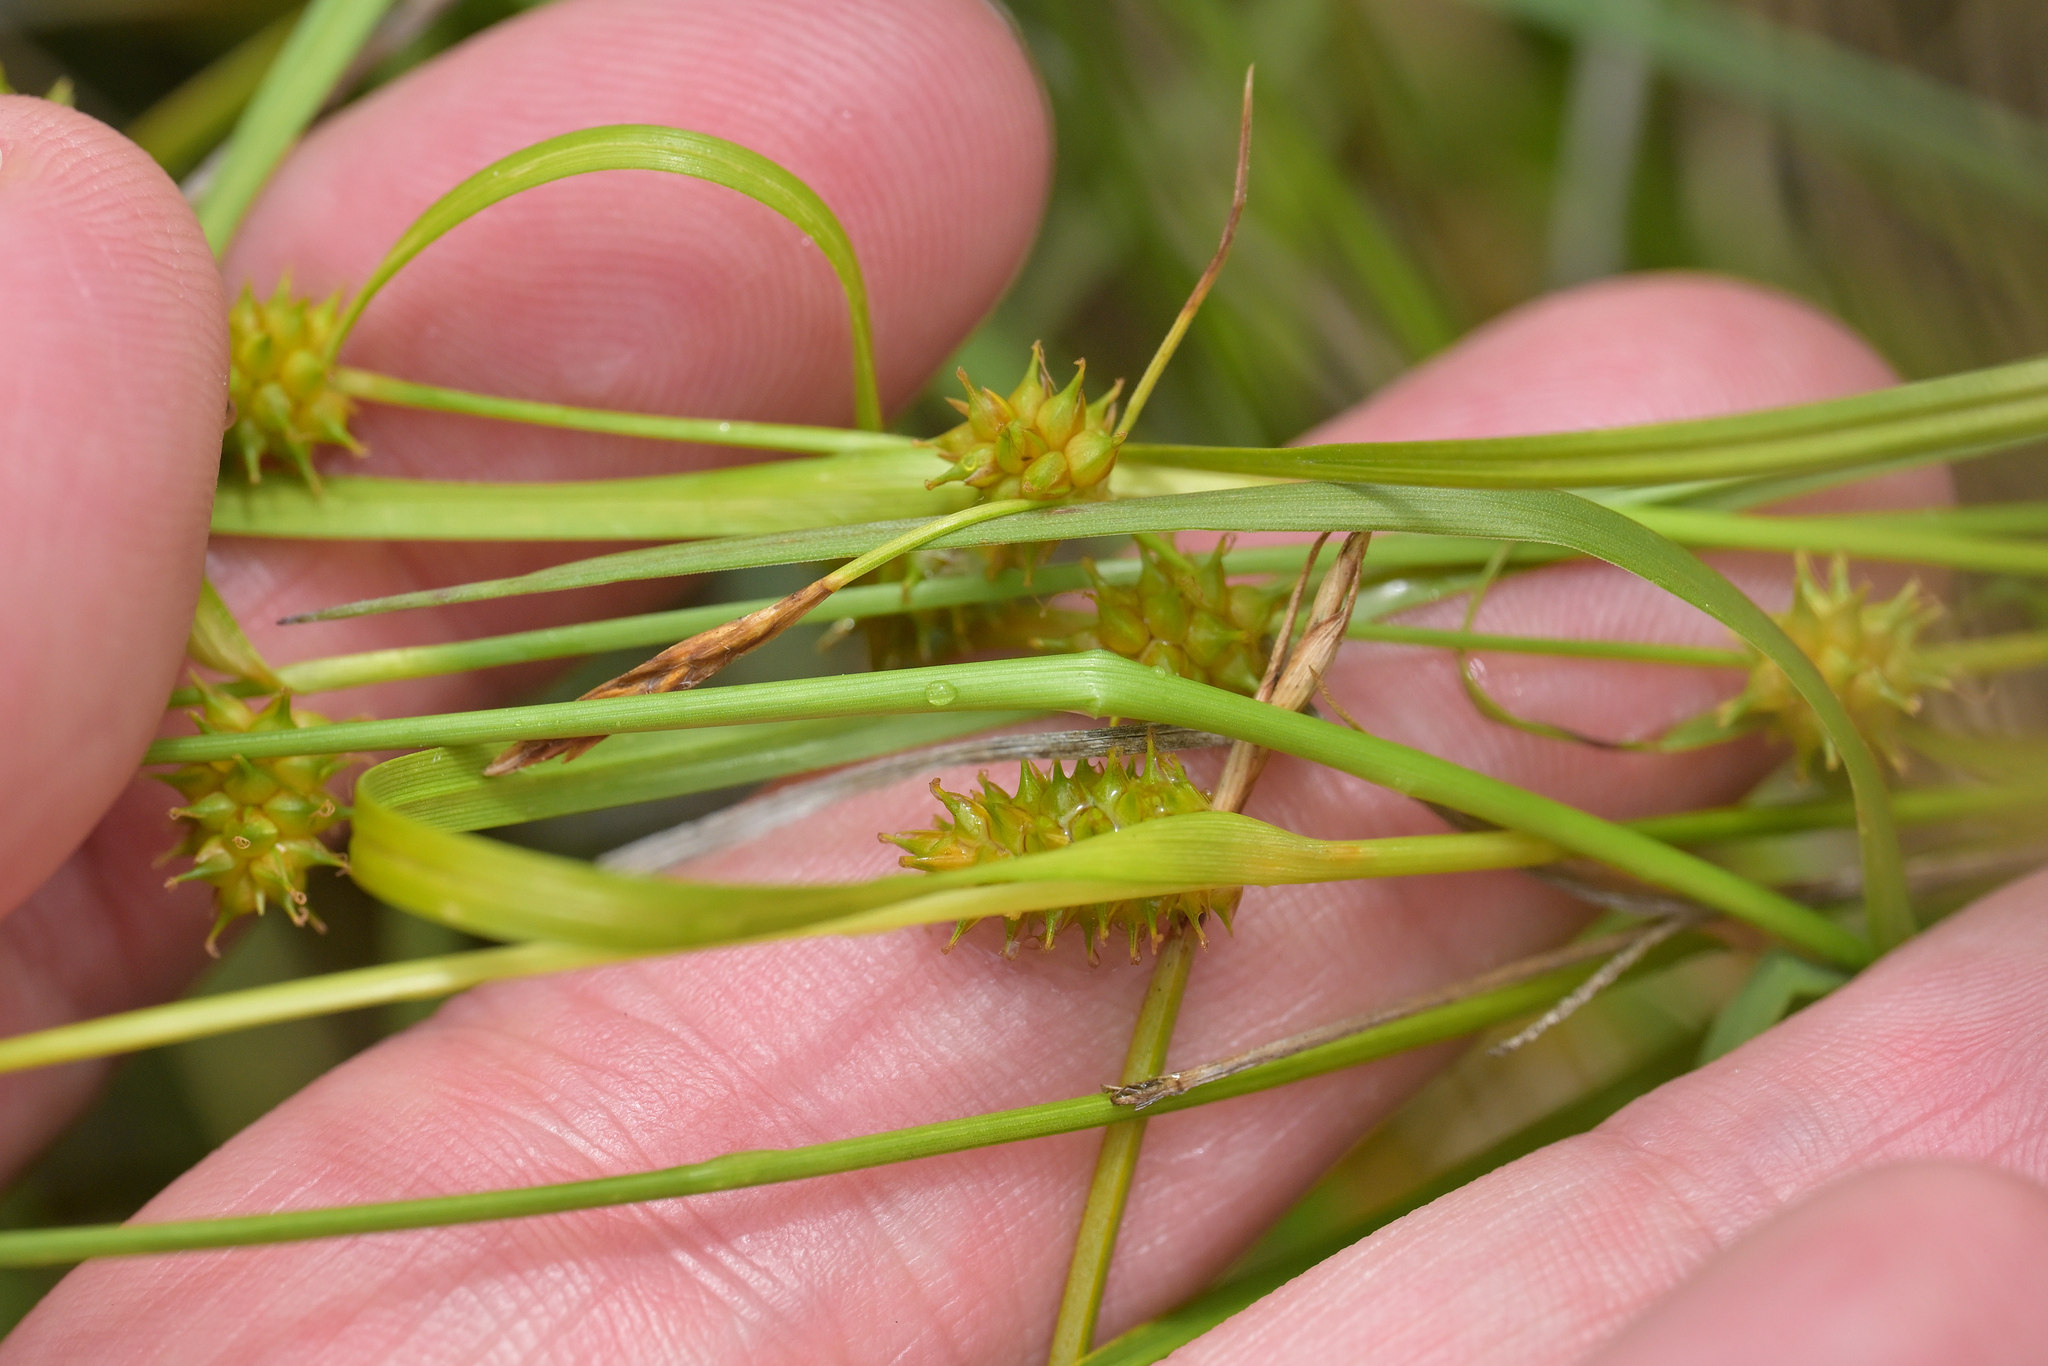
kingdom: Plantae
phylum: Tracheophyta
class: Liliopsida
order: Poales
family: Cyperaceae
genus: Carex
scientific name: Carex demissa
